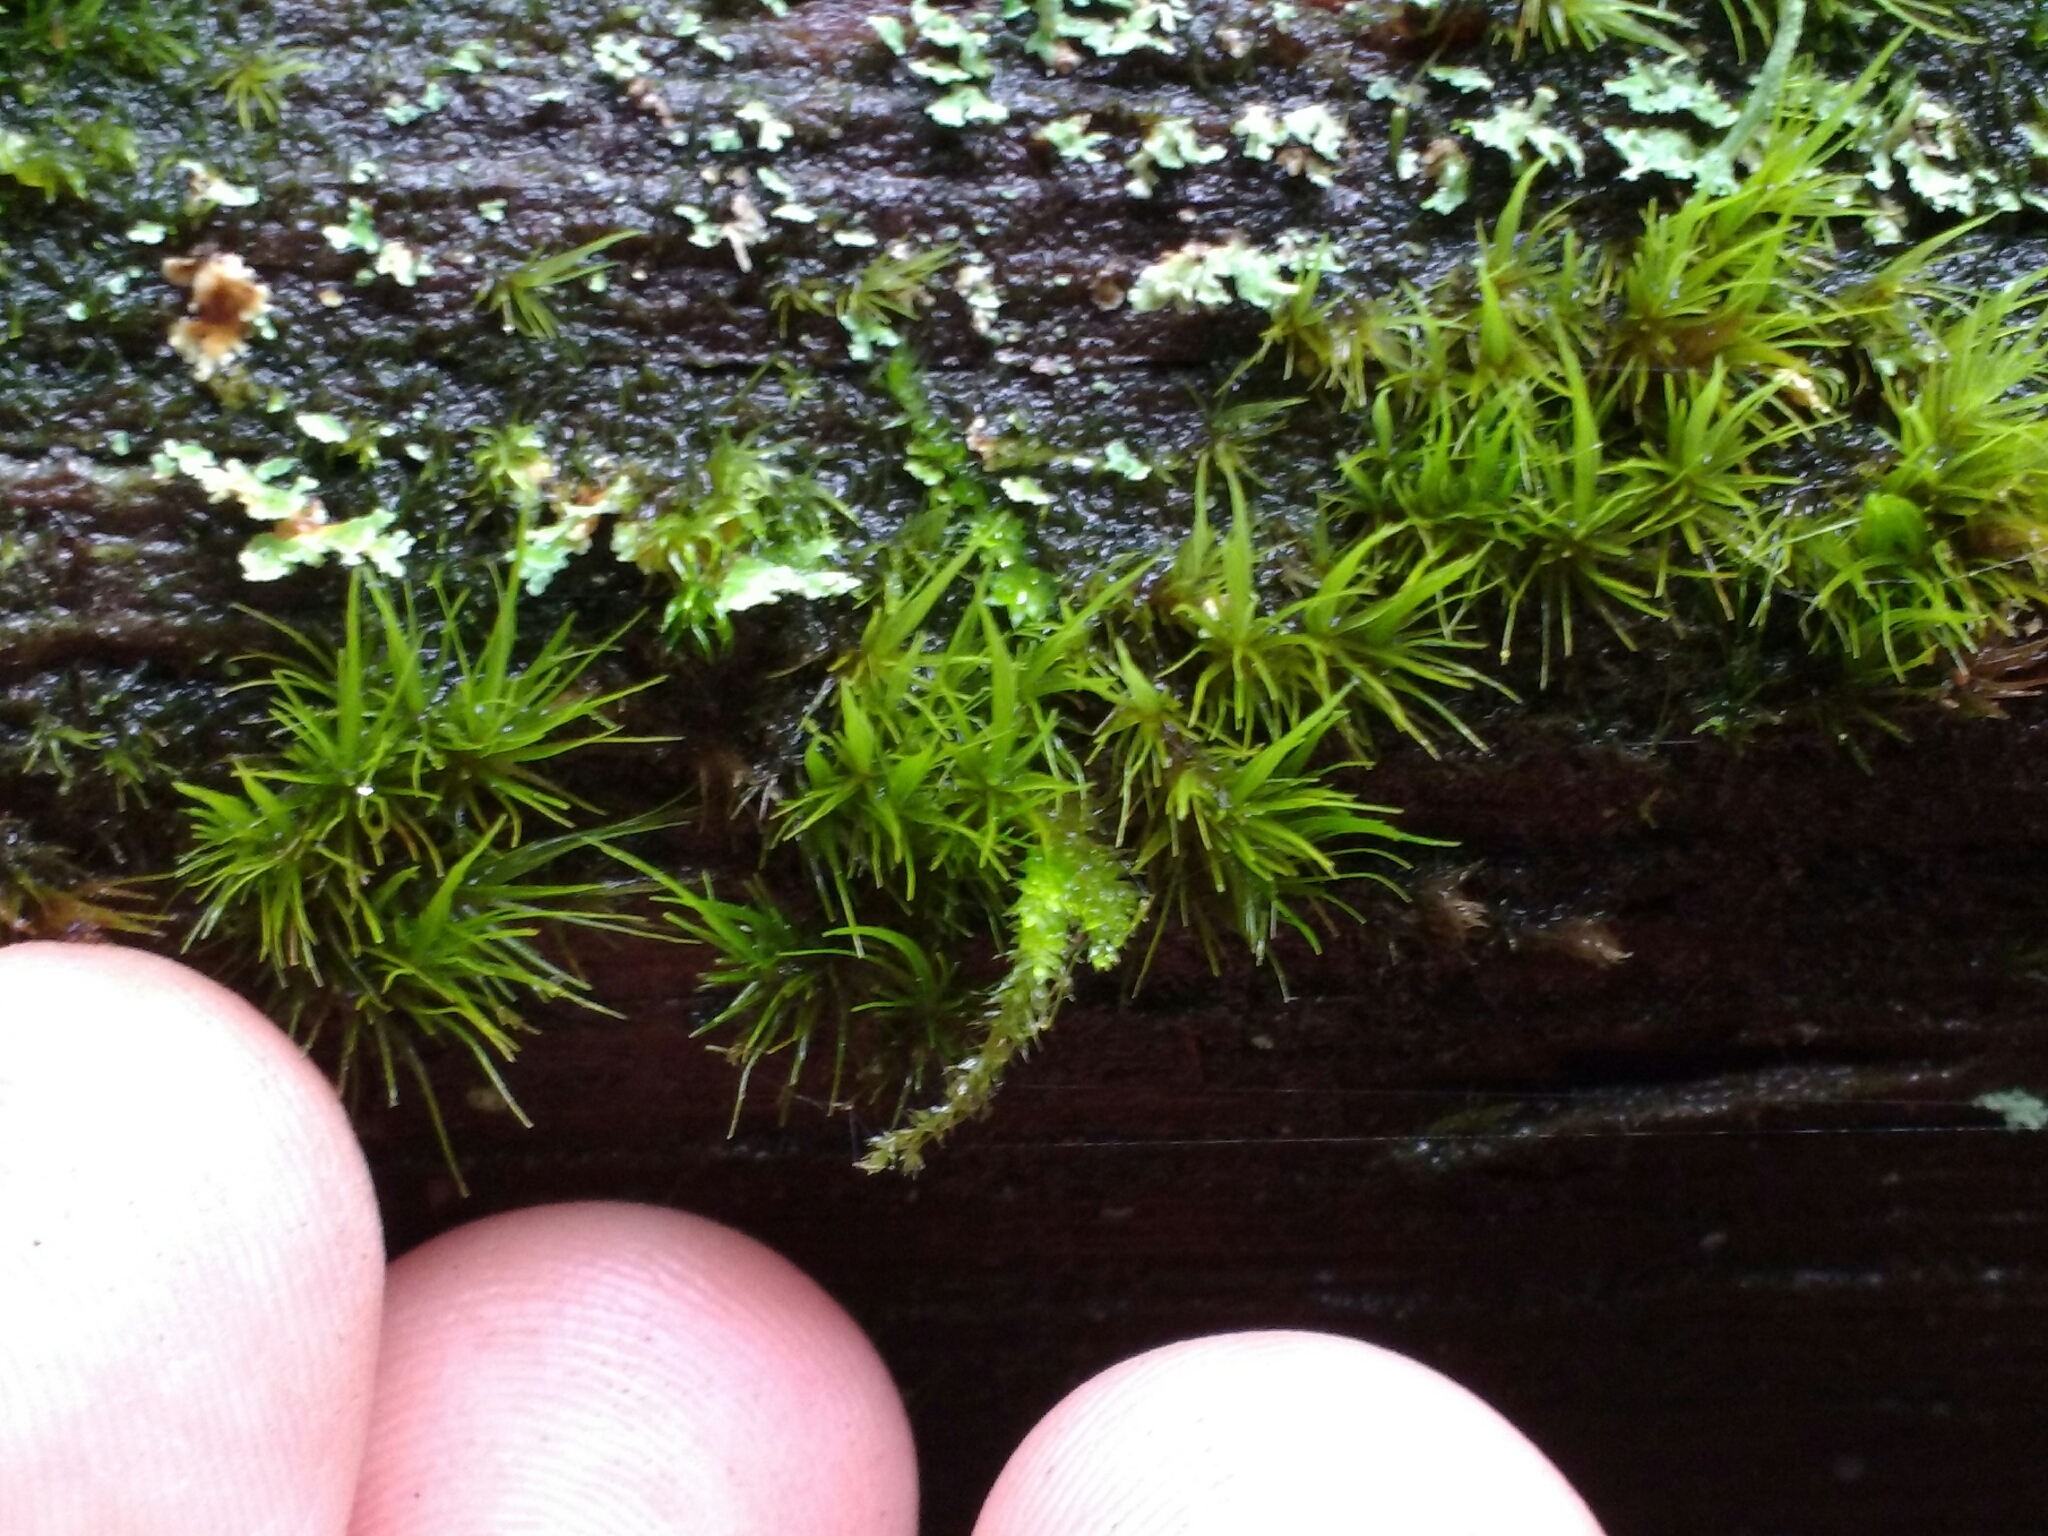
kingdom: Plantae
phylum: Bryophyta
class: Bryopsida
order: Dicranales
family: Dicranaceae
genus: Orthodicranum
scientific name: Orthodicranum tauricum
